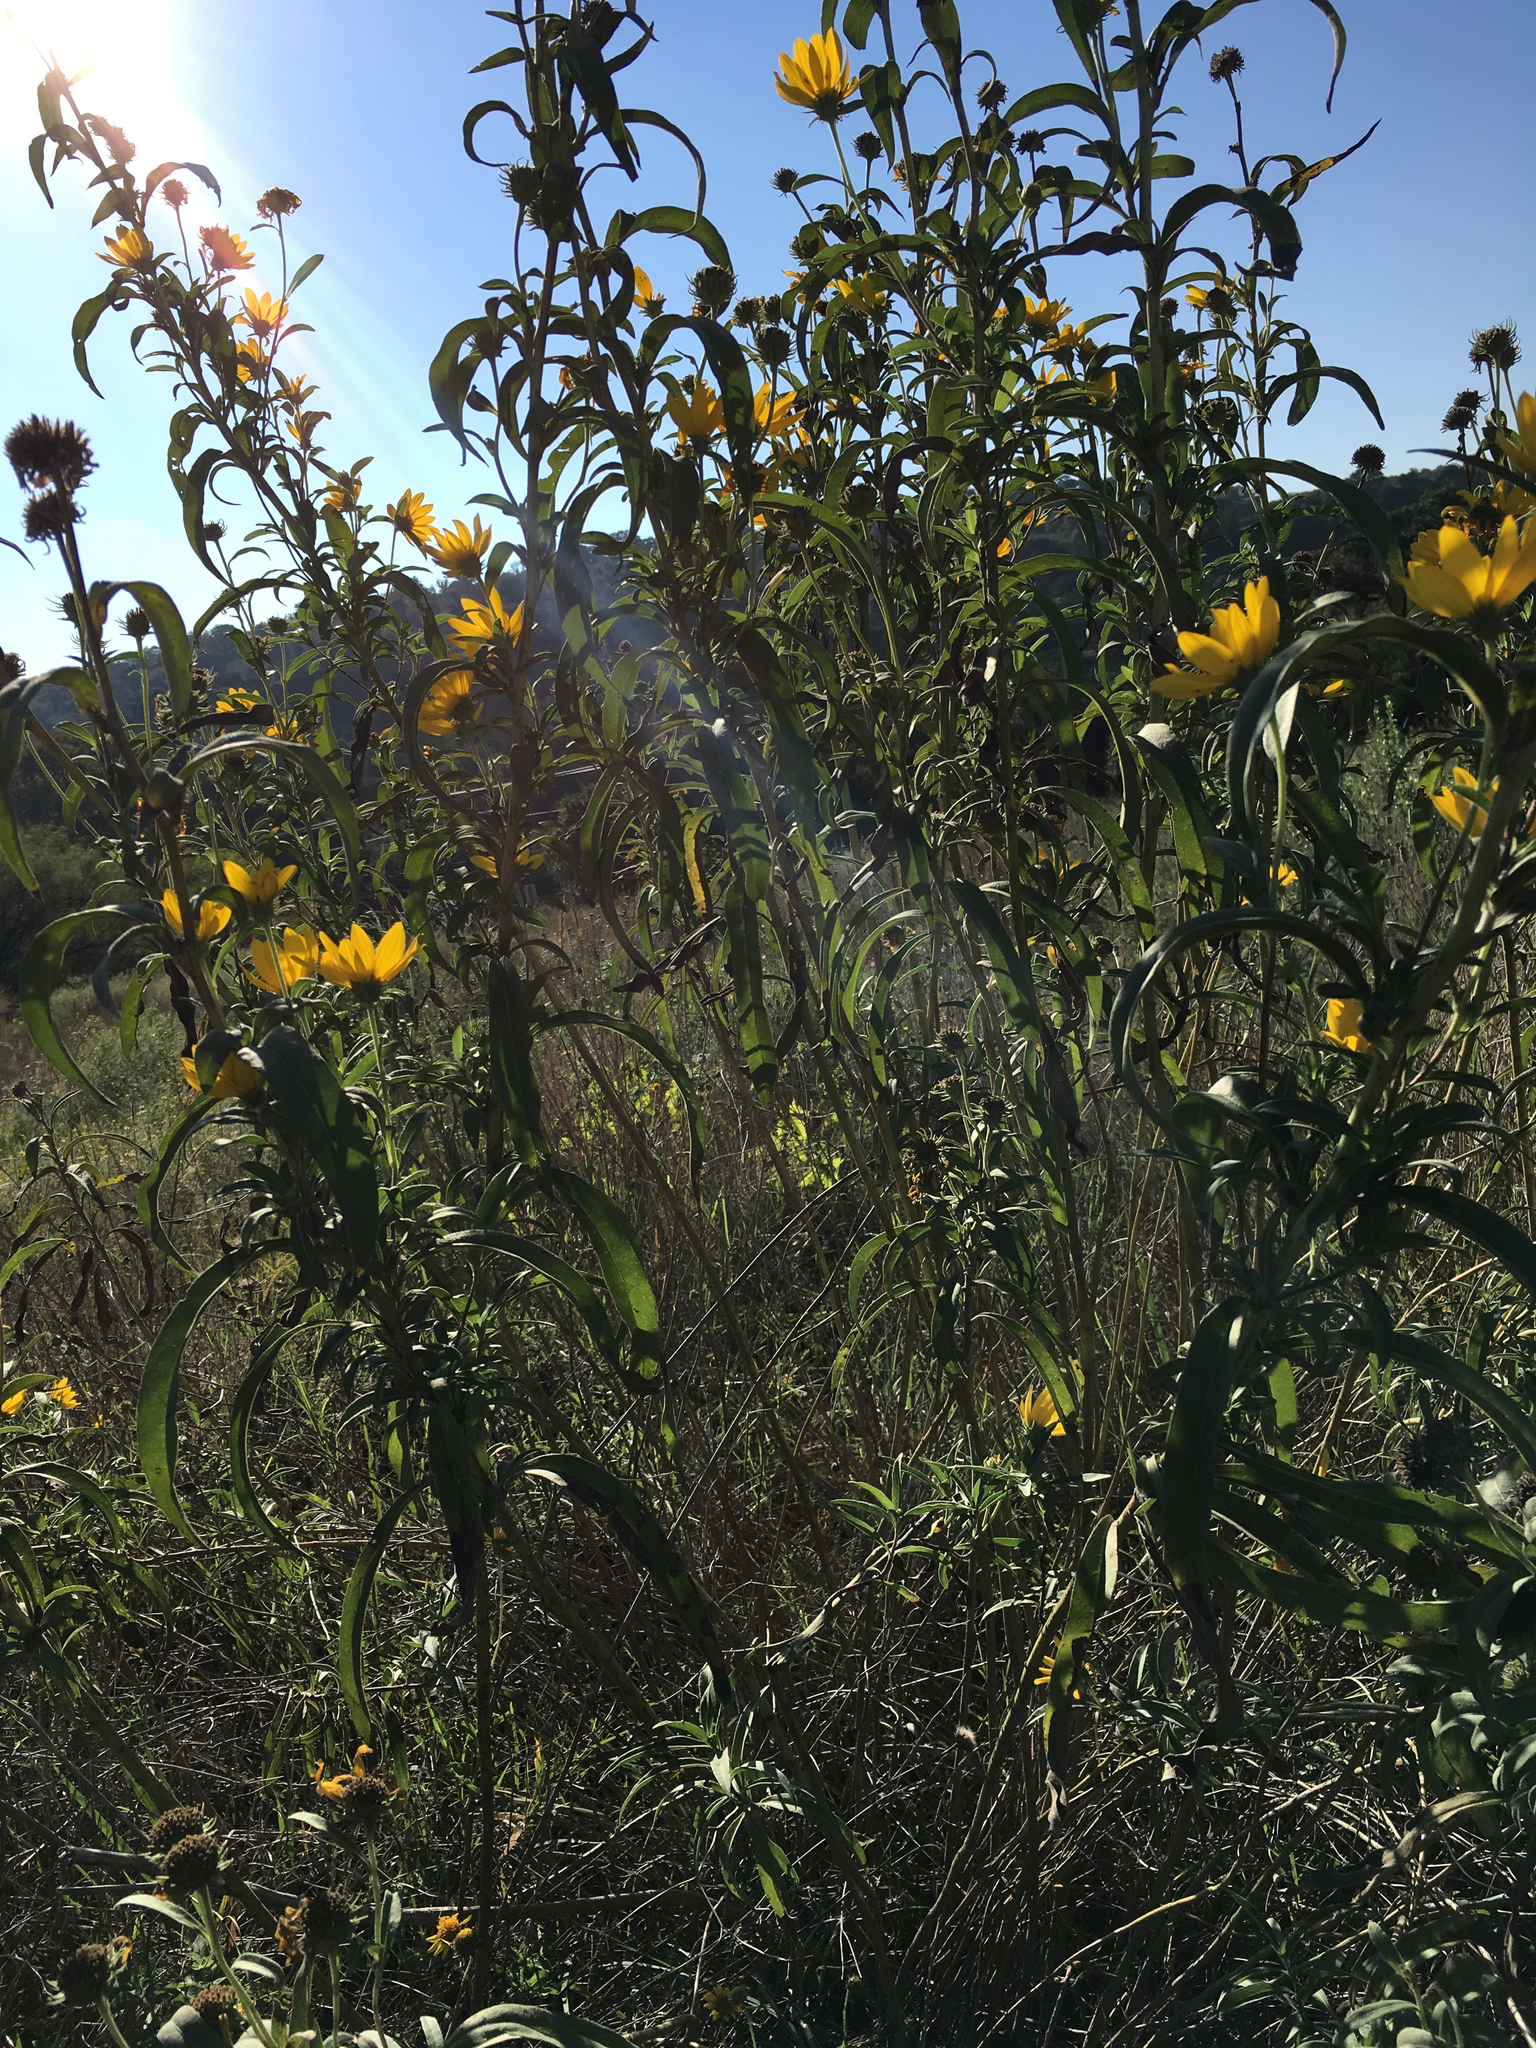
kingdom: Plantae
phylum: Tracheophyta
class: Magnoliopsida
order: Asterales
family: Asteraceae
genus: Helianthus
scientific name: Helianthus maximiliani
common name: Maximilian's sunflower
